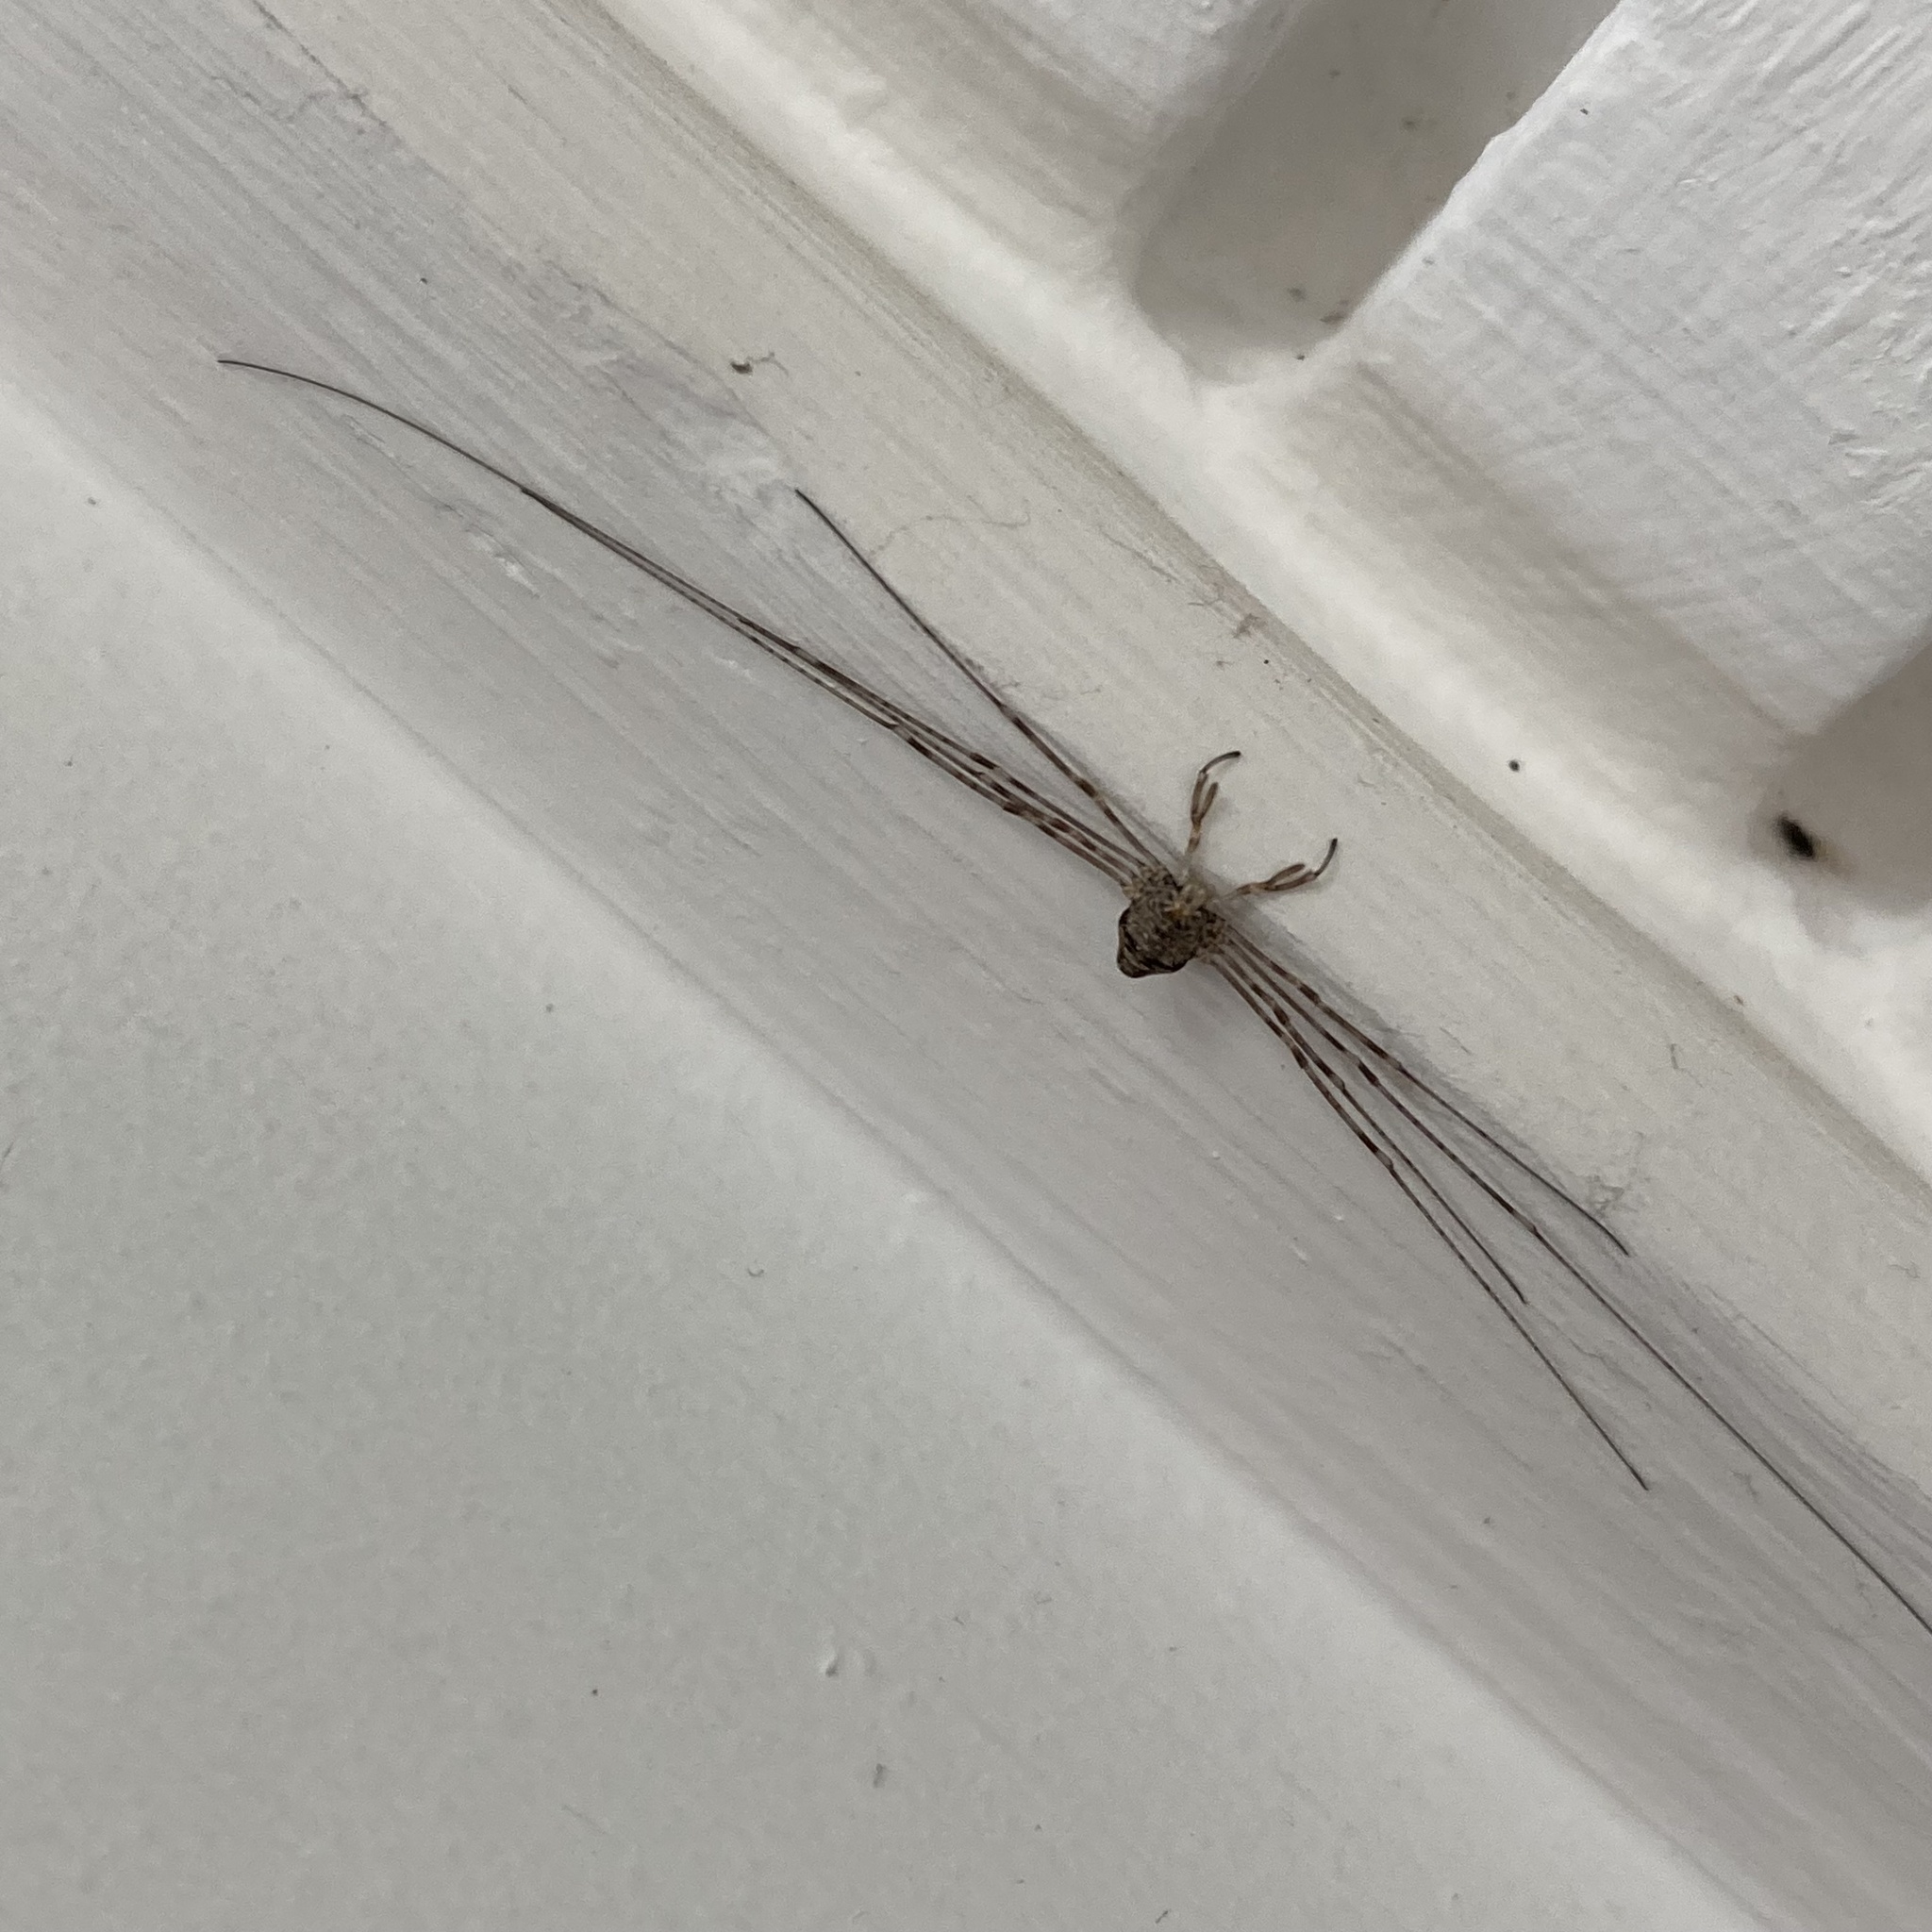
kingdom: Animalia
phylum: Arthropoda
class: Arachnida
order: Opiliones
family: Phalangiidae
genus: Dicranopalpus
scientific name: Dicranopalpus ramosus
